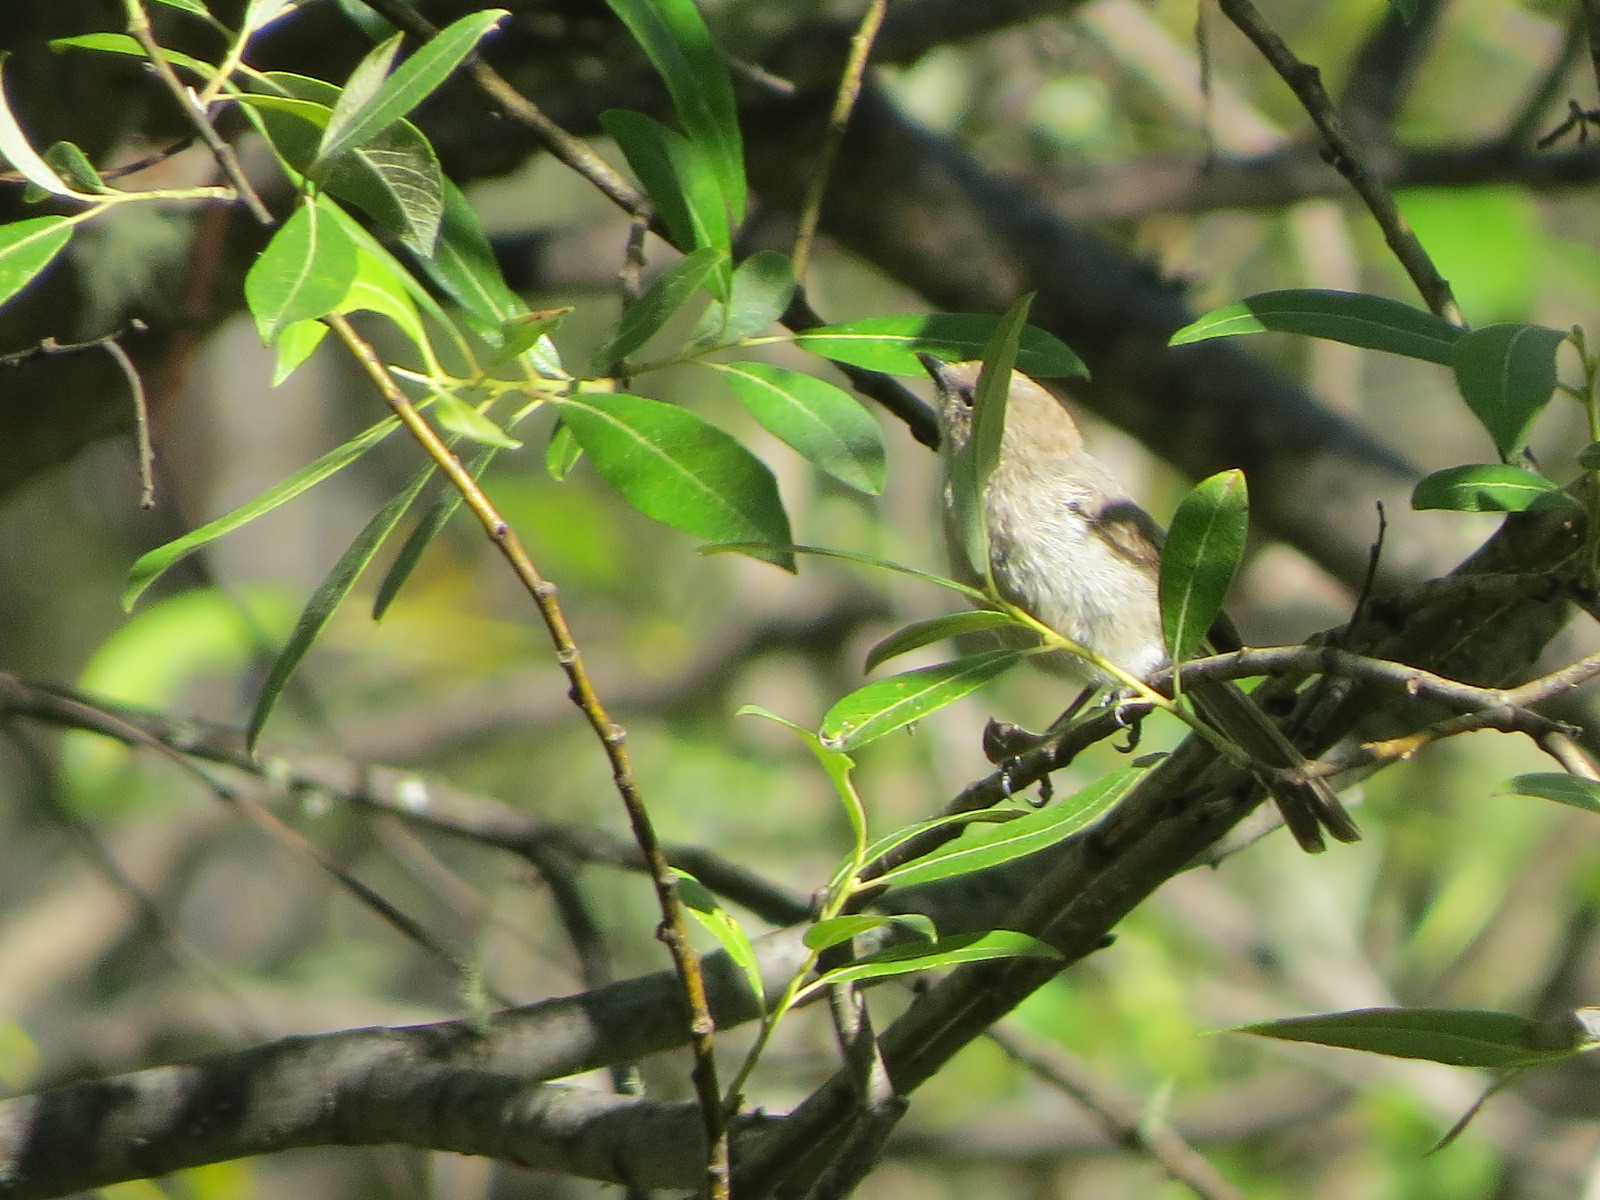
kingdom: Animalia
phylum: Chordata
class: Aves
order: Passeriformes
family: Aegithalidae
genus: Psaltriparus
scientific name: Psaltriparus minimus
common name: American bushtit
